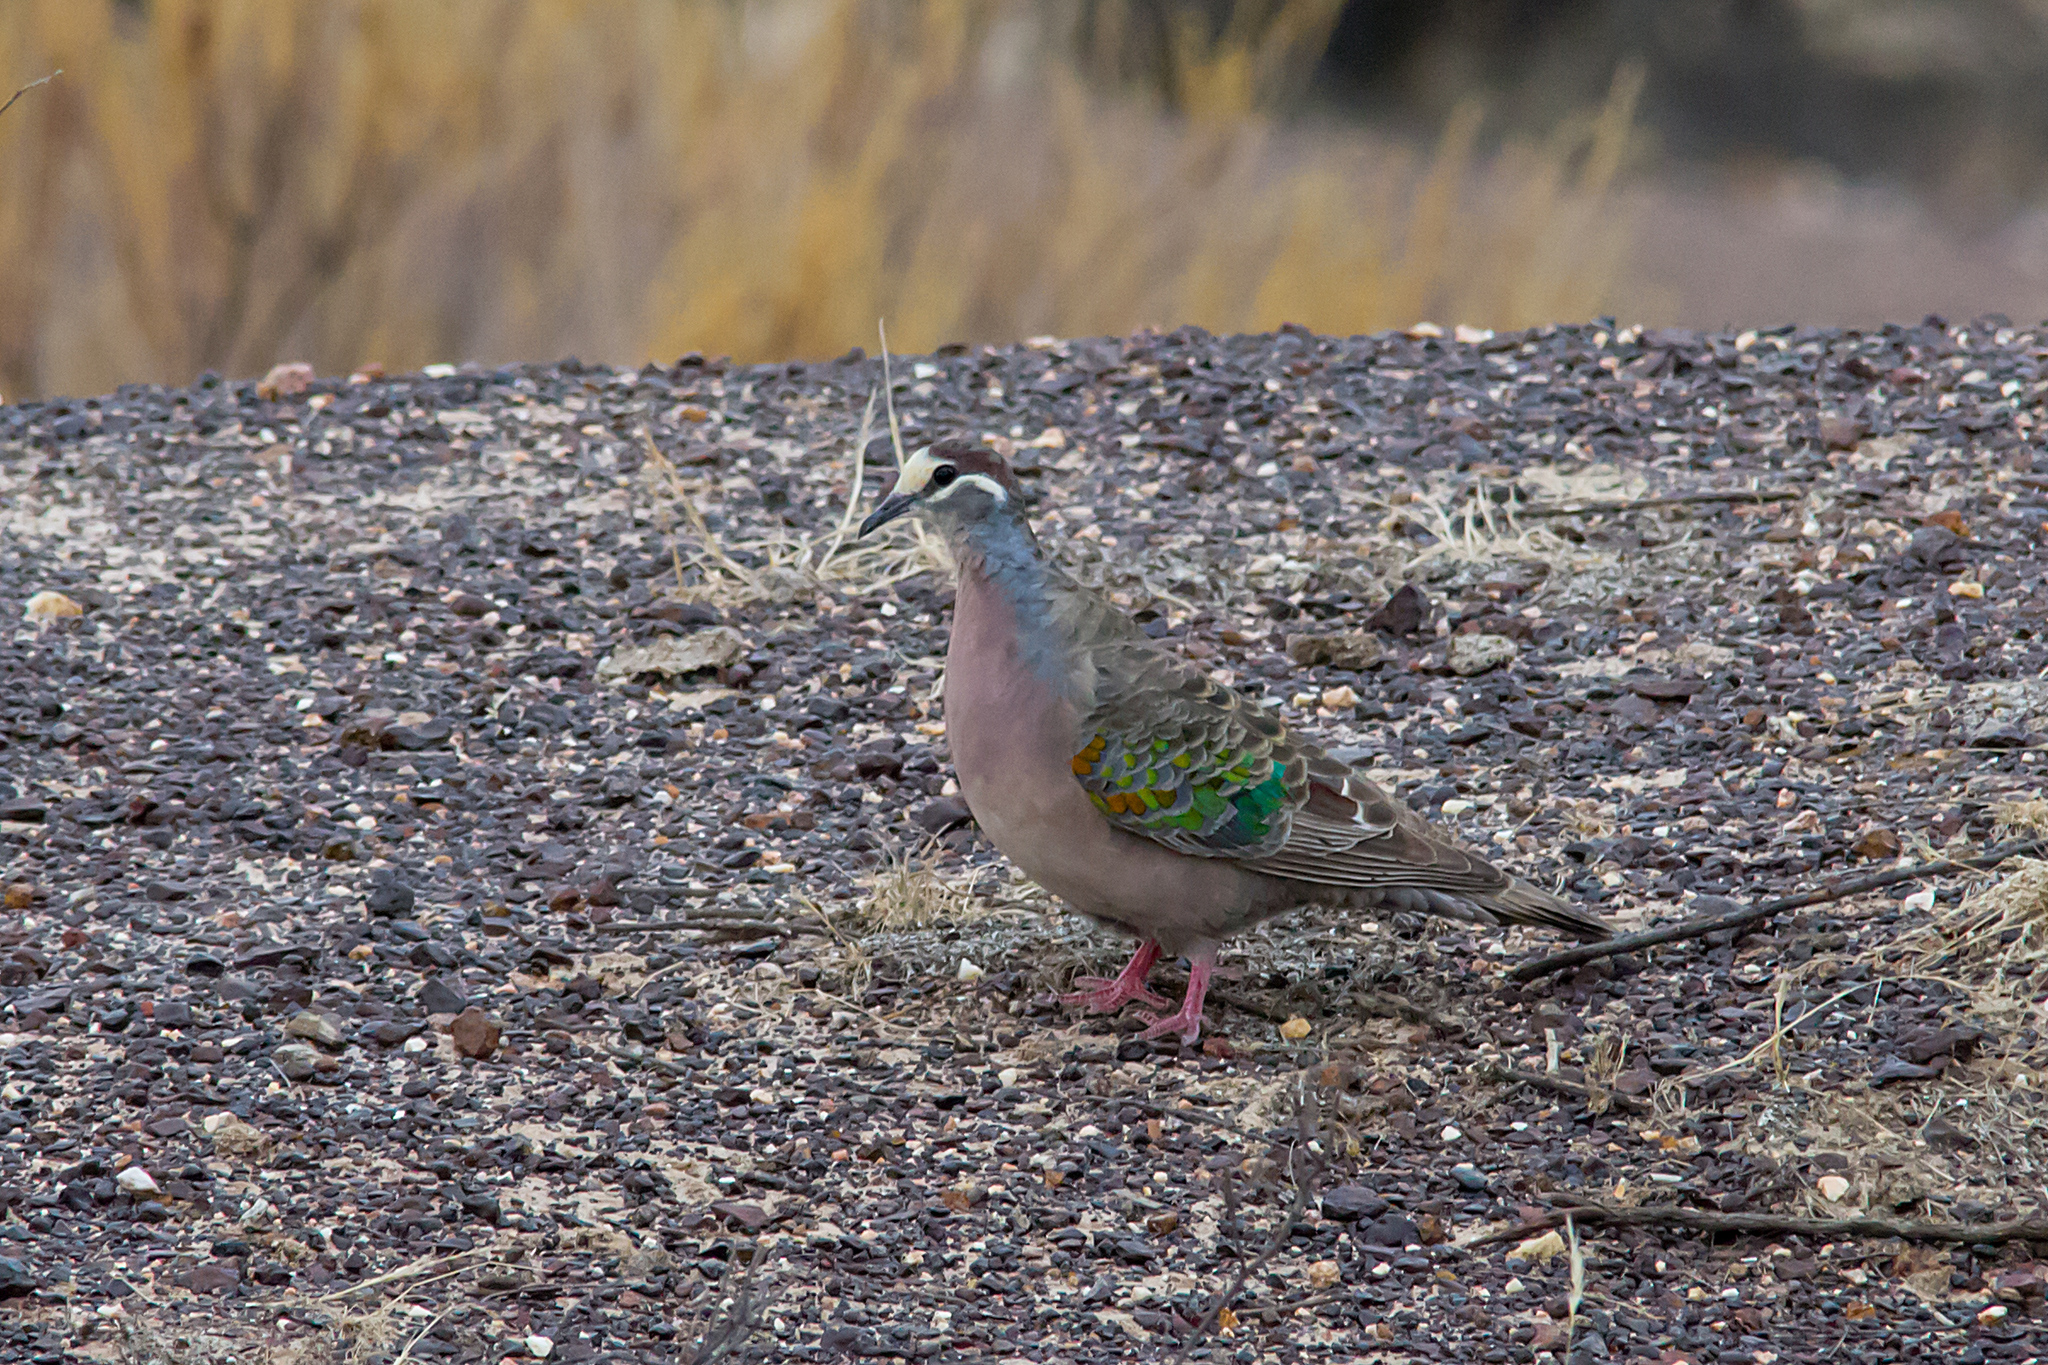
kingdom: Animalia
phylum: Chordata
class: Aves
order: Columbiformes
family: Columbidae
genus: Phaps
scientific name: Phaps chalcoptera
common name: Common bronzewing
